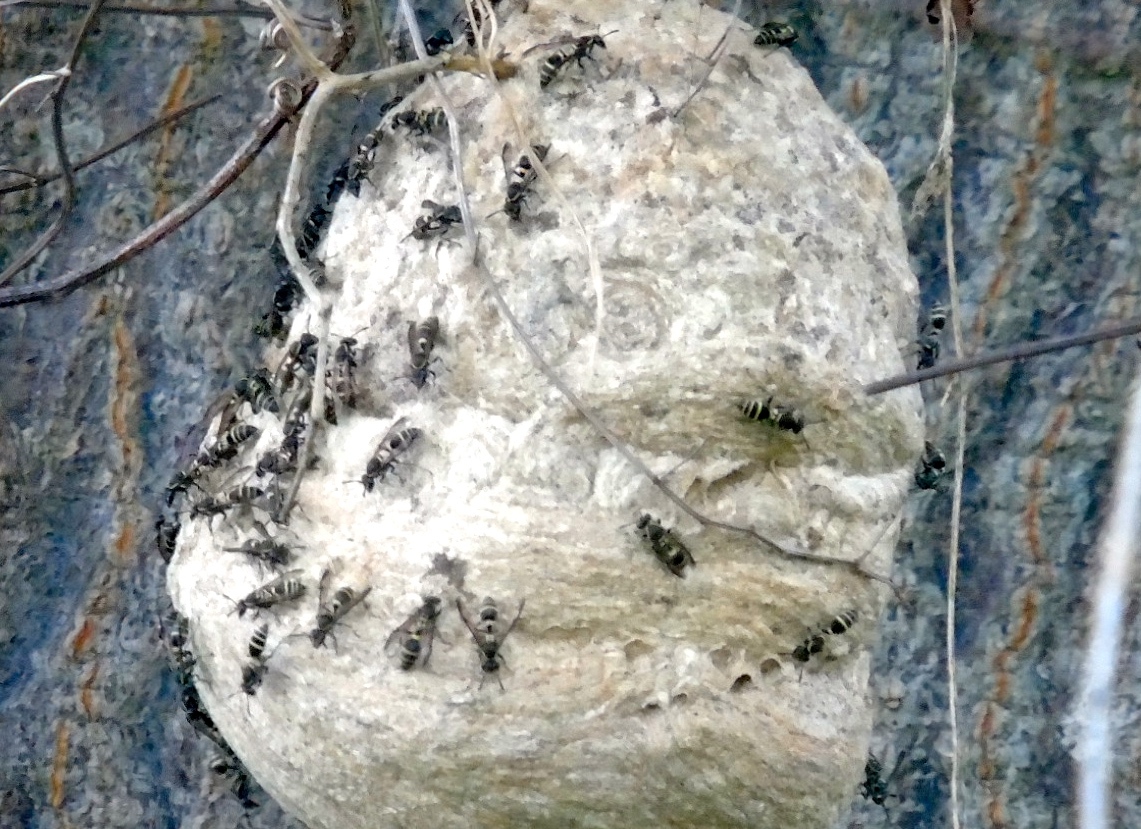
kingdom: Animalia
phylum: Arthropoda
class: Insecta
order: Hymenoptera
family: Vespidae
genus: Myrapetra
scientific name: Myrapetra
